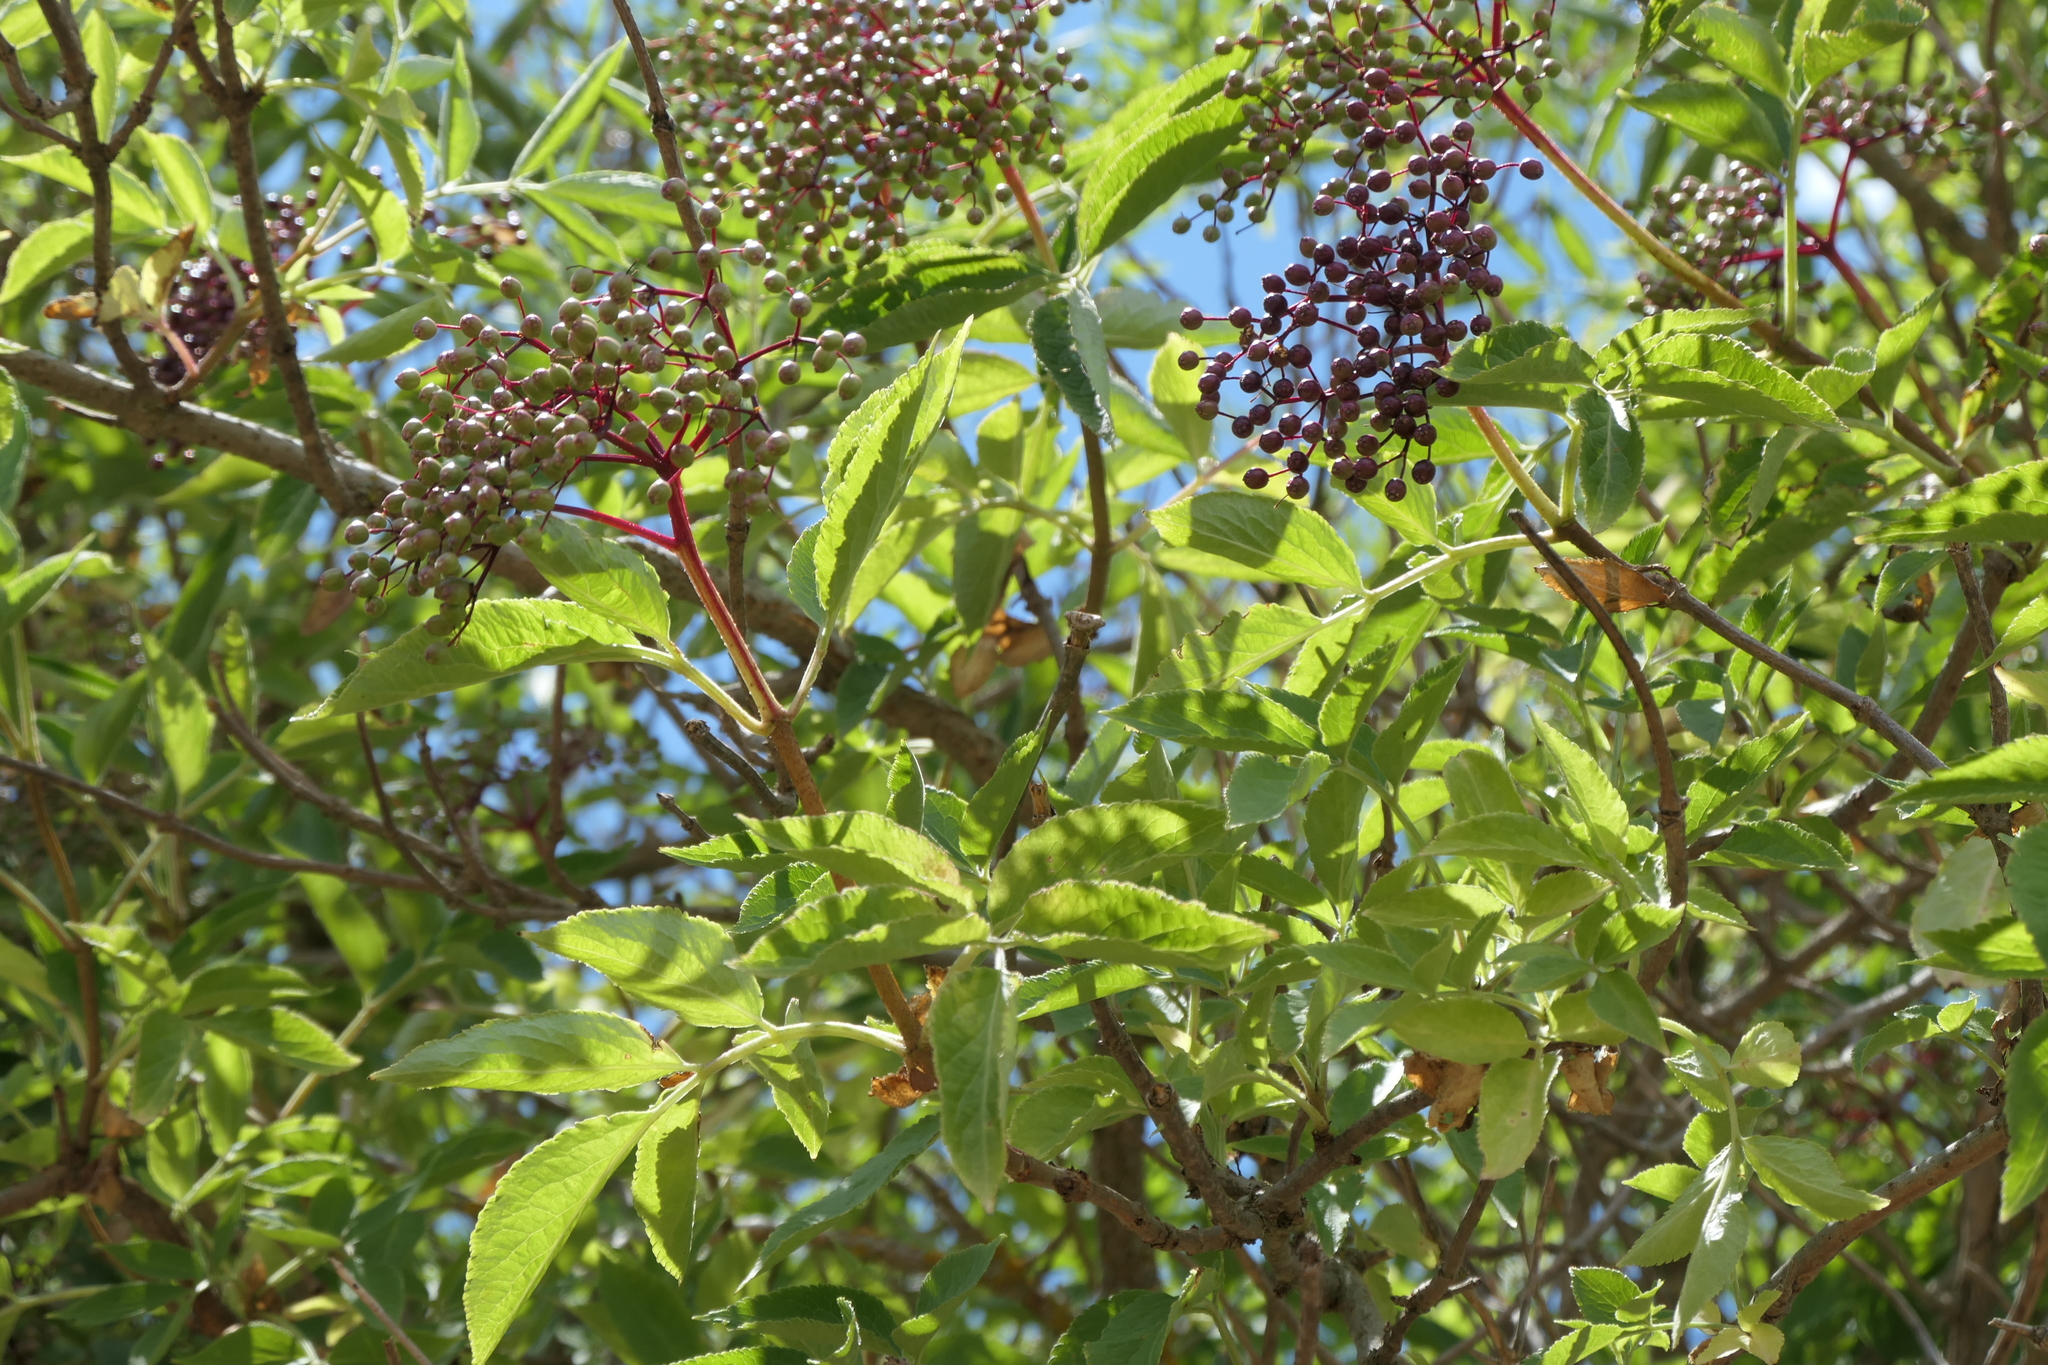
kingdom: Plantae
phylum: Tracheophyta
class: Magnoliopsida
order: Dipsacales
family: Viburnaceae
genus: Sambucus
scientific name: Sambucus nigra
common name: Elder
